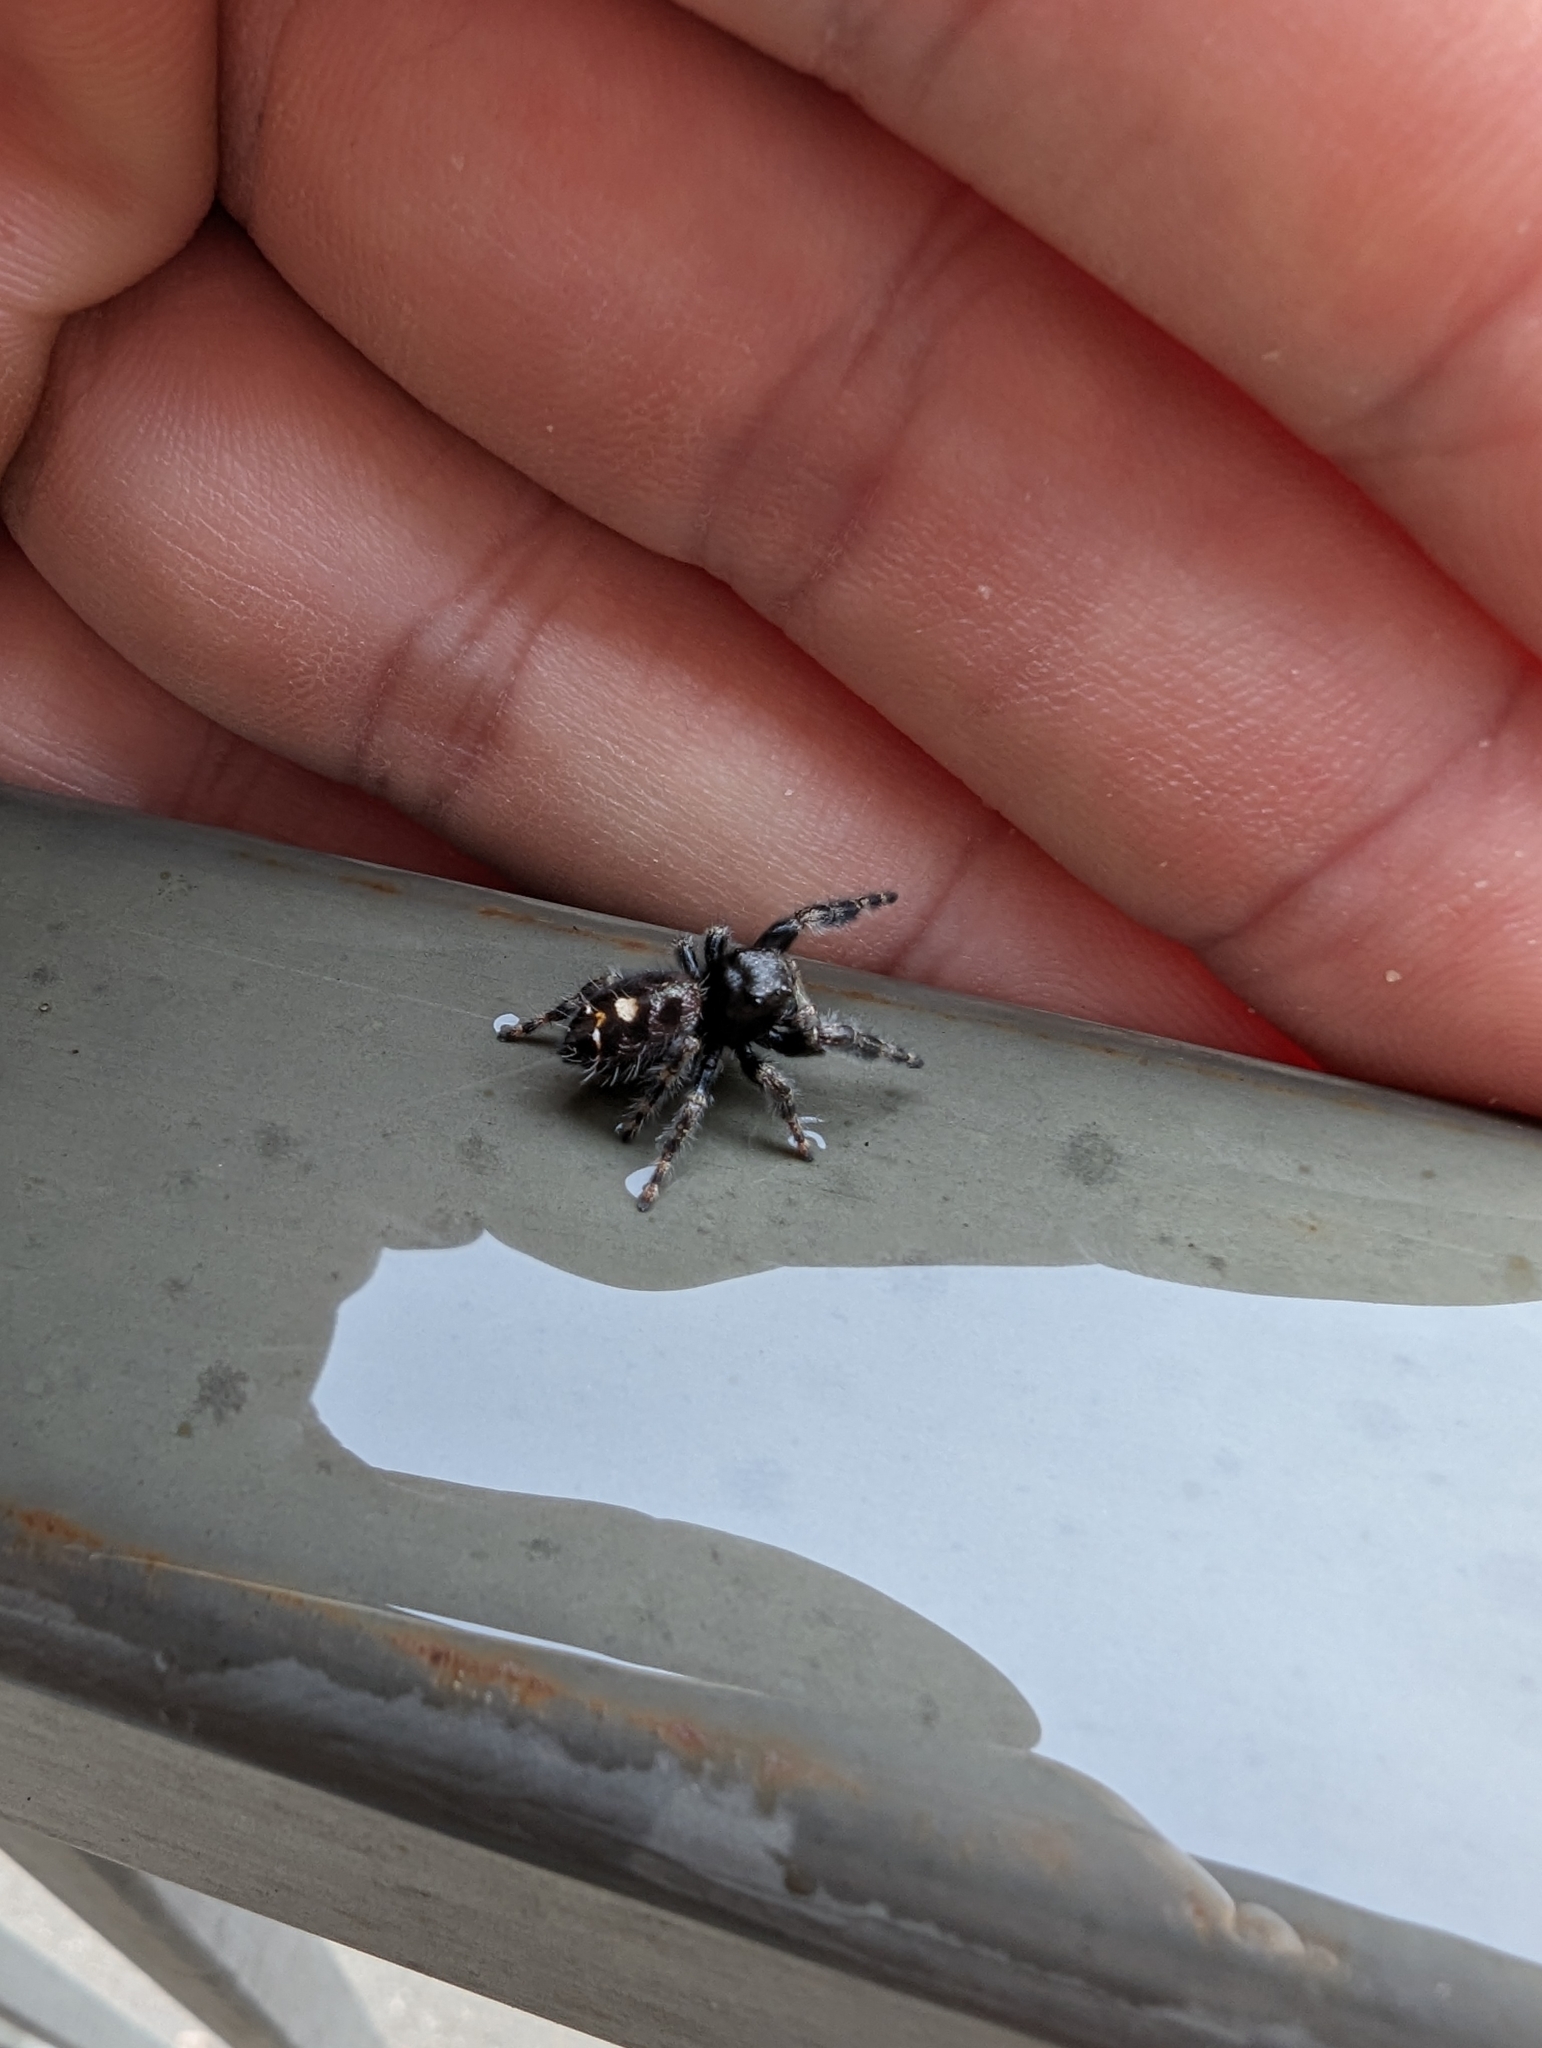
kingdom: Animalia
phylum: Arthropoda
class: Arachnida
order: Araneae
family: Salticidae
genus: Phidippus
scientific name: Phidippus audax
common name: Bold jumper
